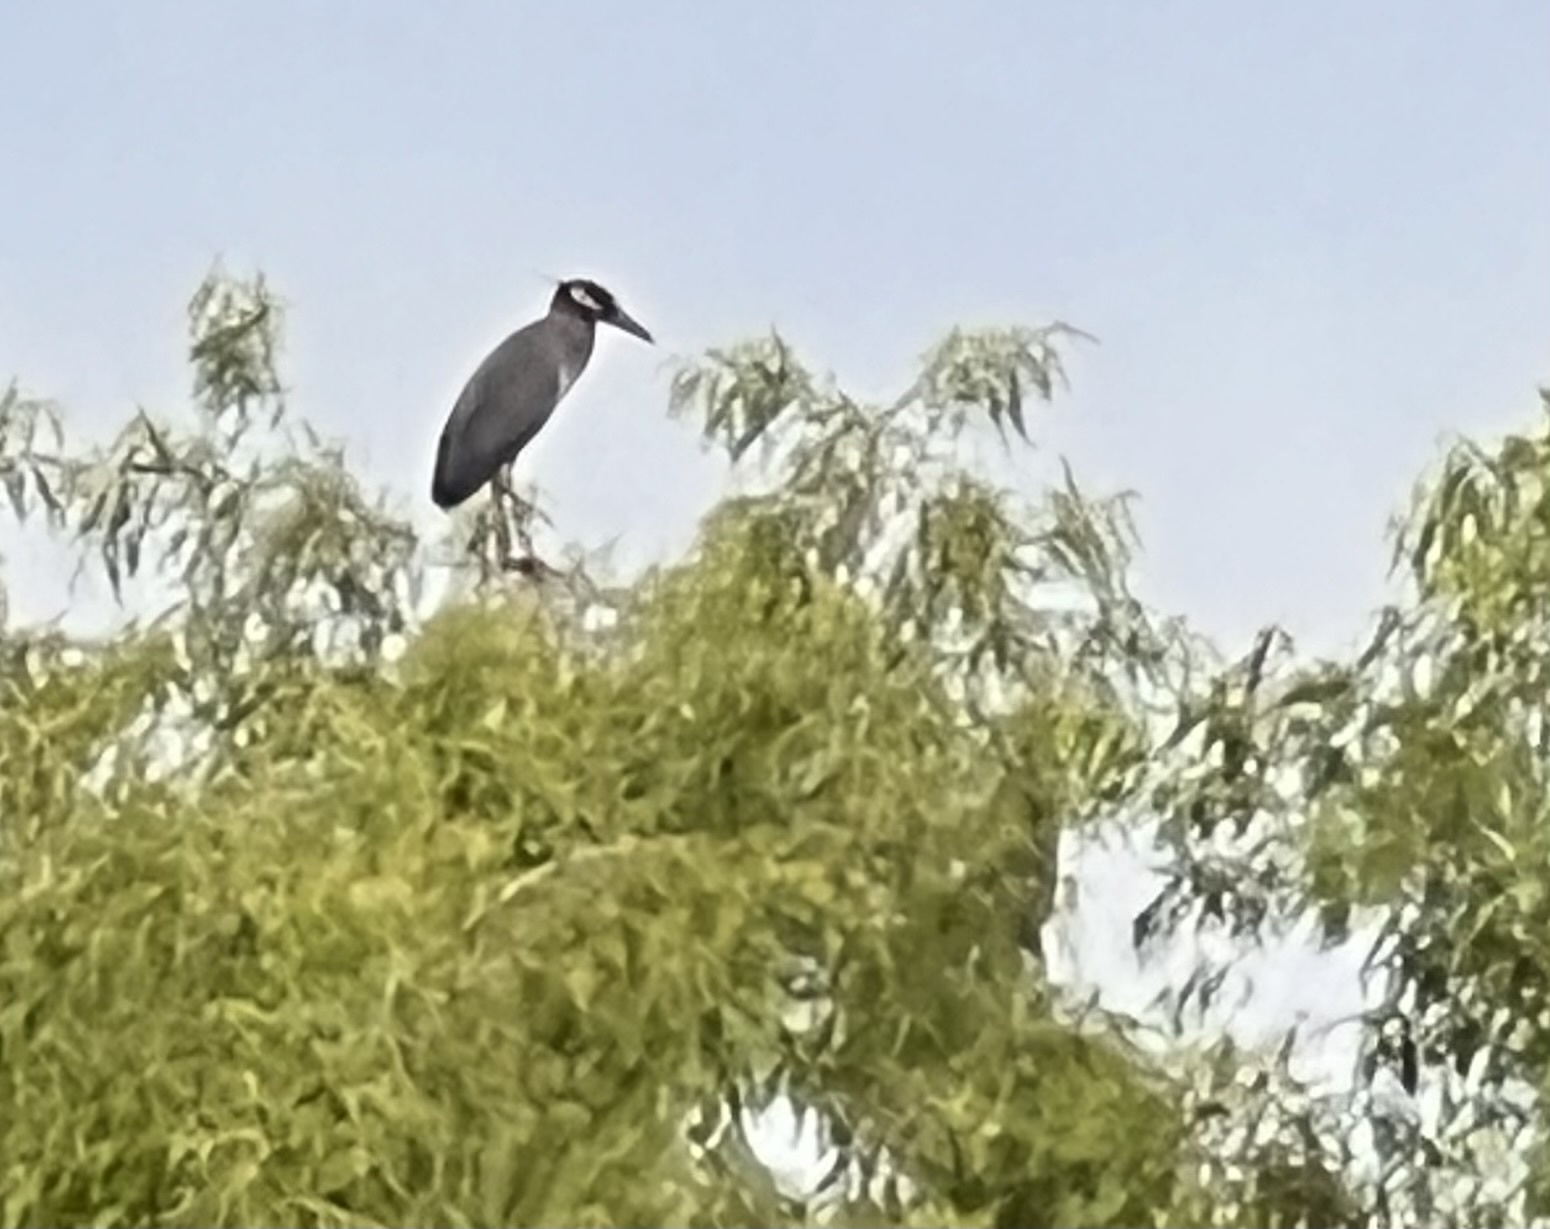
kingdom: Animalia
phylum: Chordata
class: Aves
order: Pelecaniformes
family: Ardeidae
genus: Nyctanassa
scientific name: Nyctanassa violacea
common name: Yellow-crowned night heron
